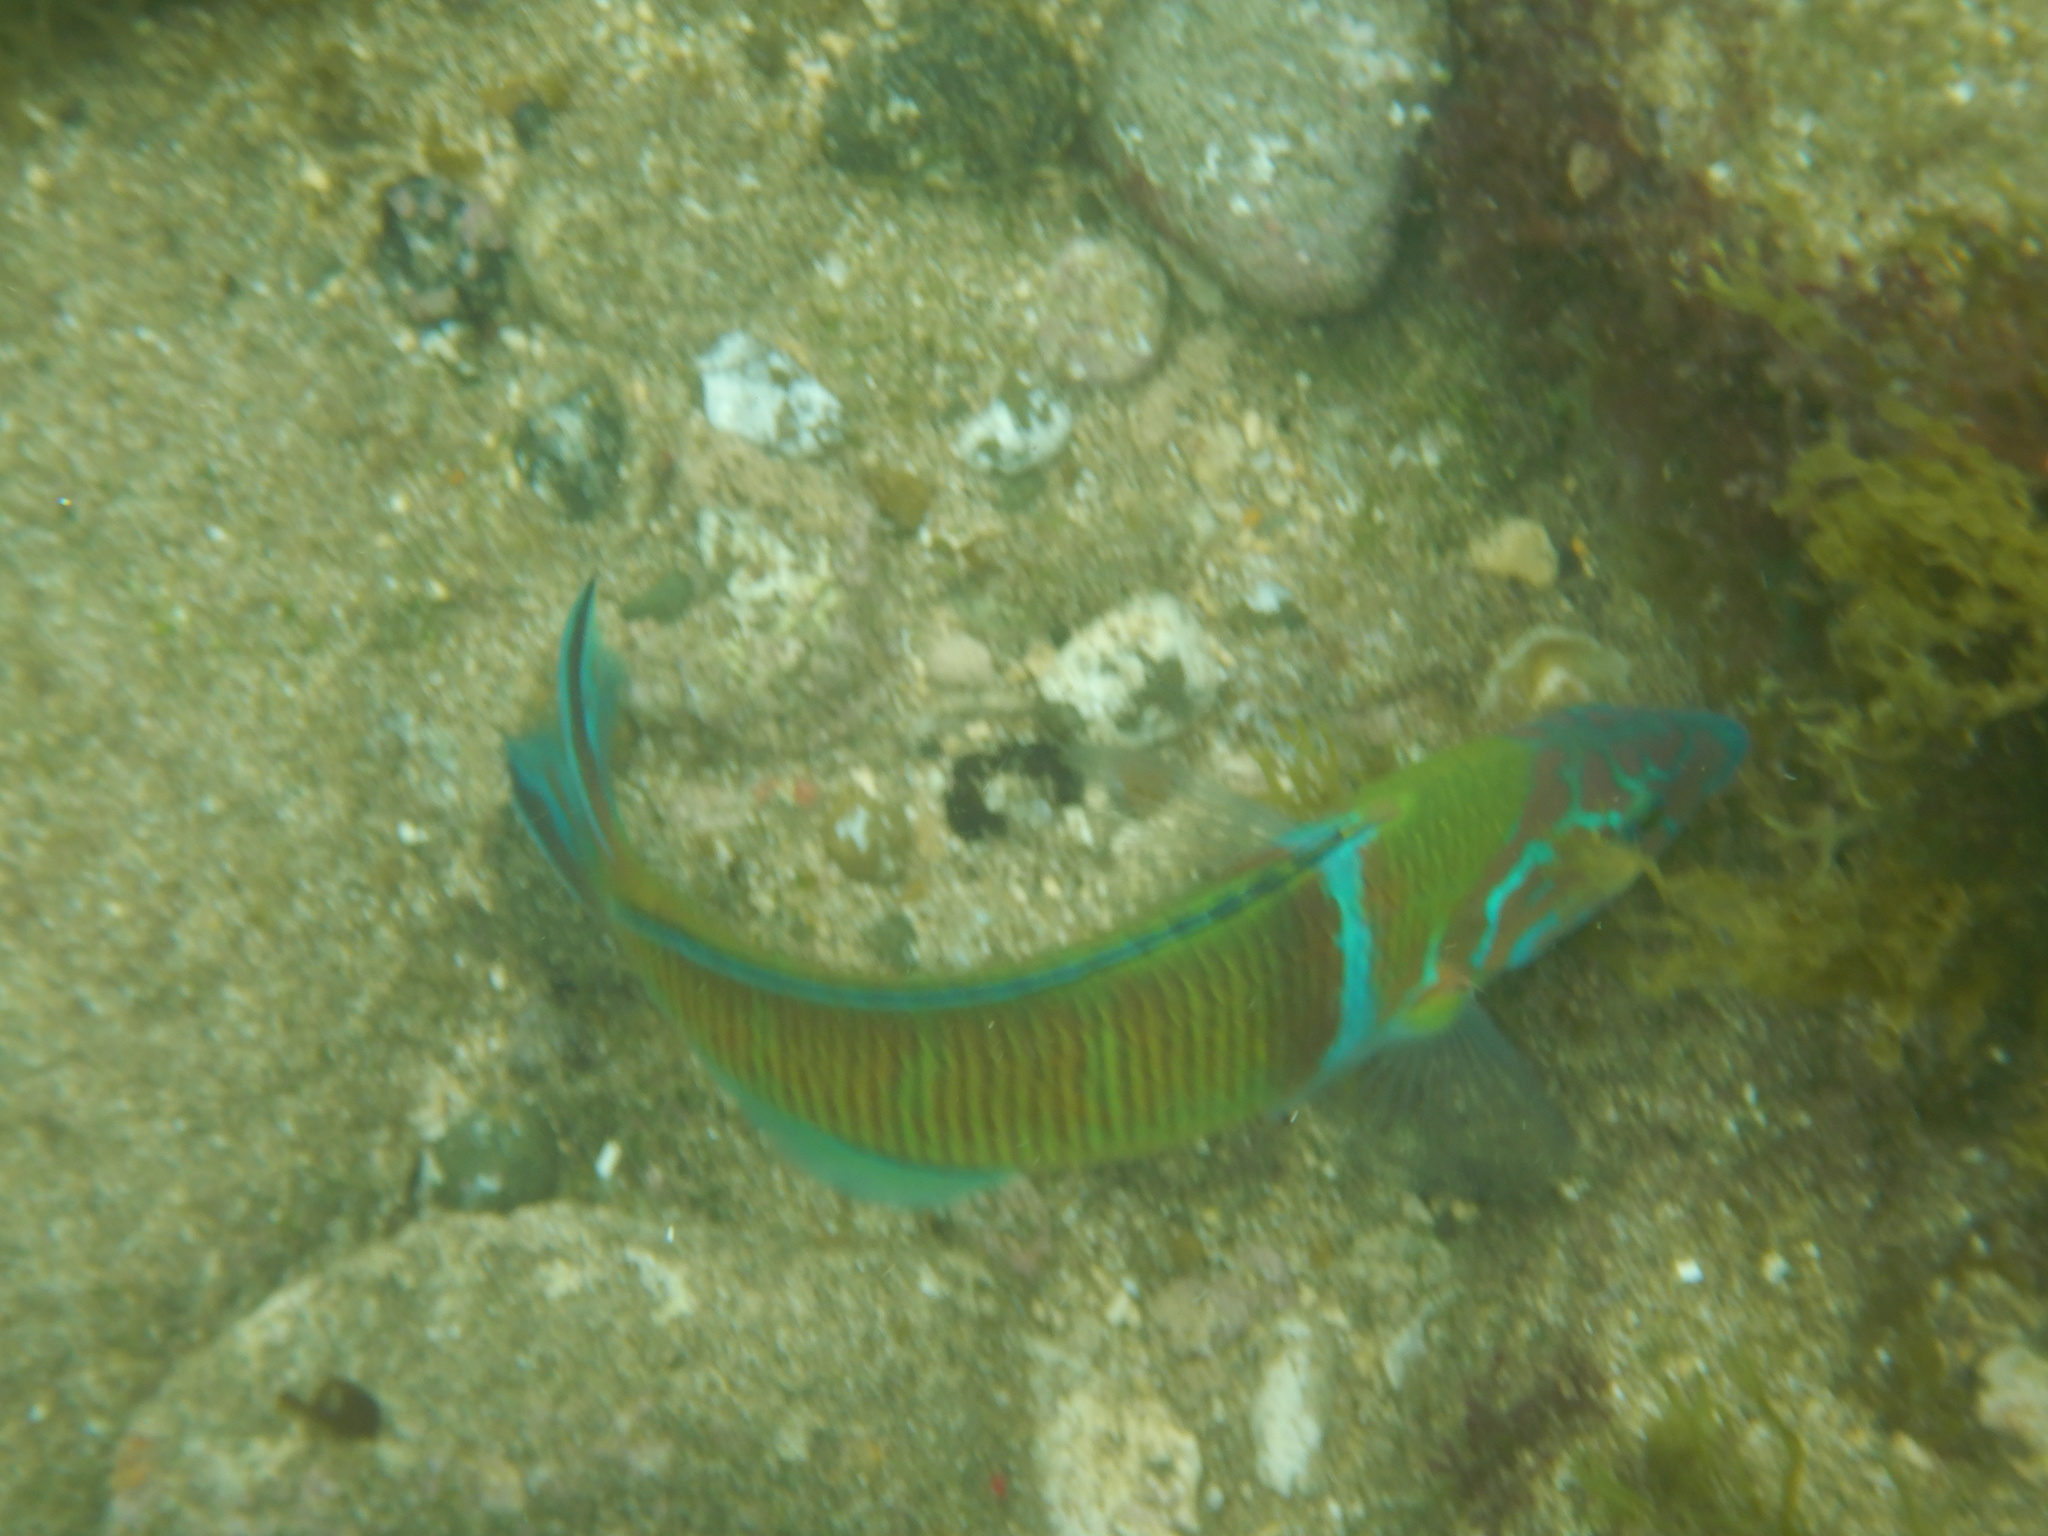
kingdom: Animalia
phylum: Chordata
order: Perciformes
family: Labridae
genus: Thalassoma
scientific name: Thalassoma pavo
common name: Ornate wrasse
